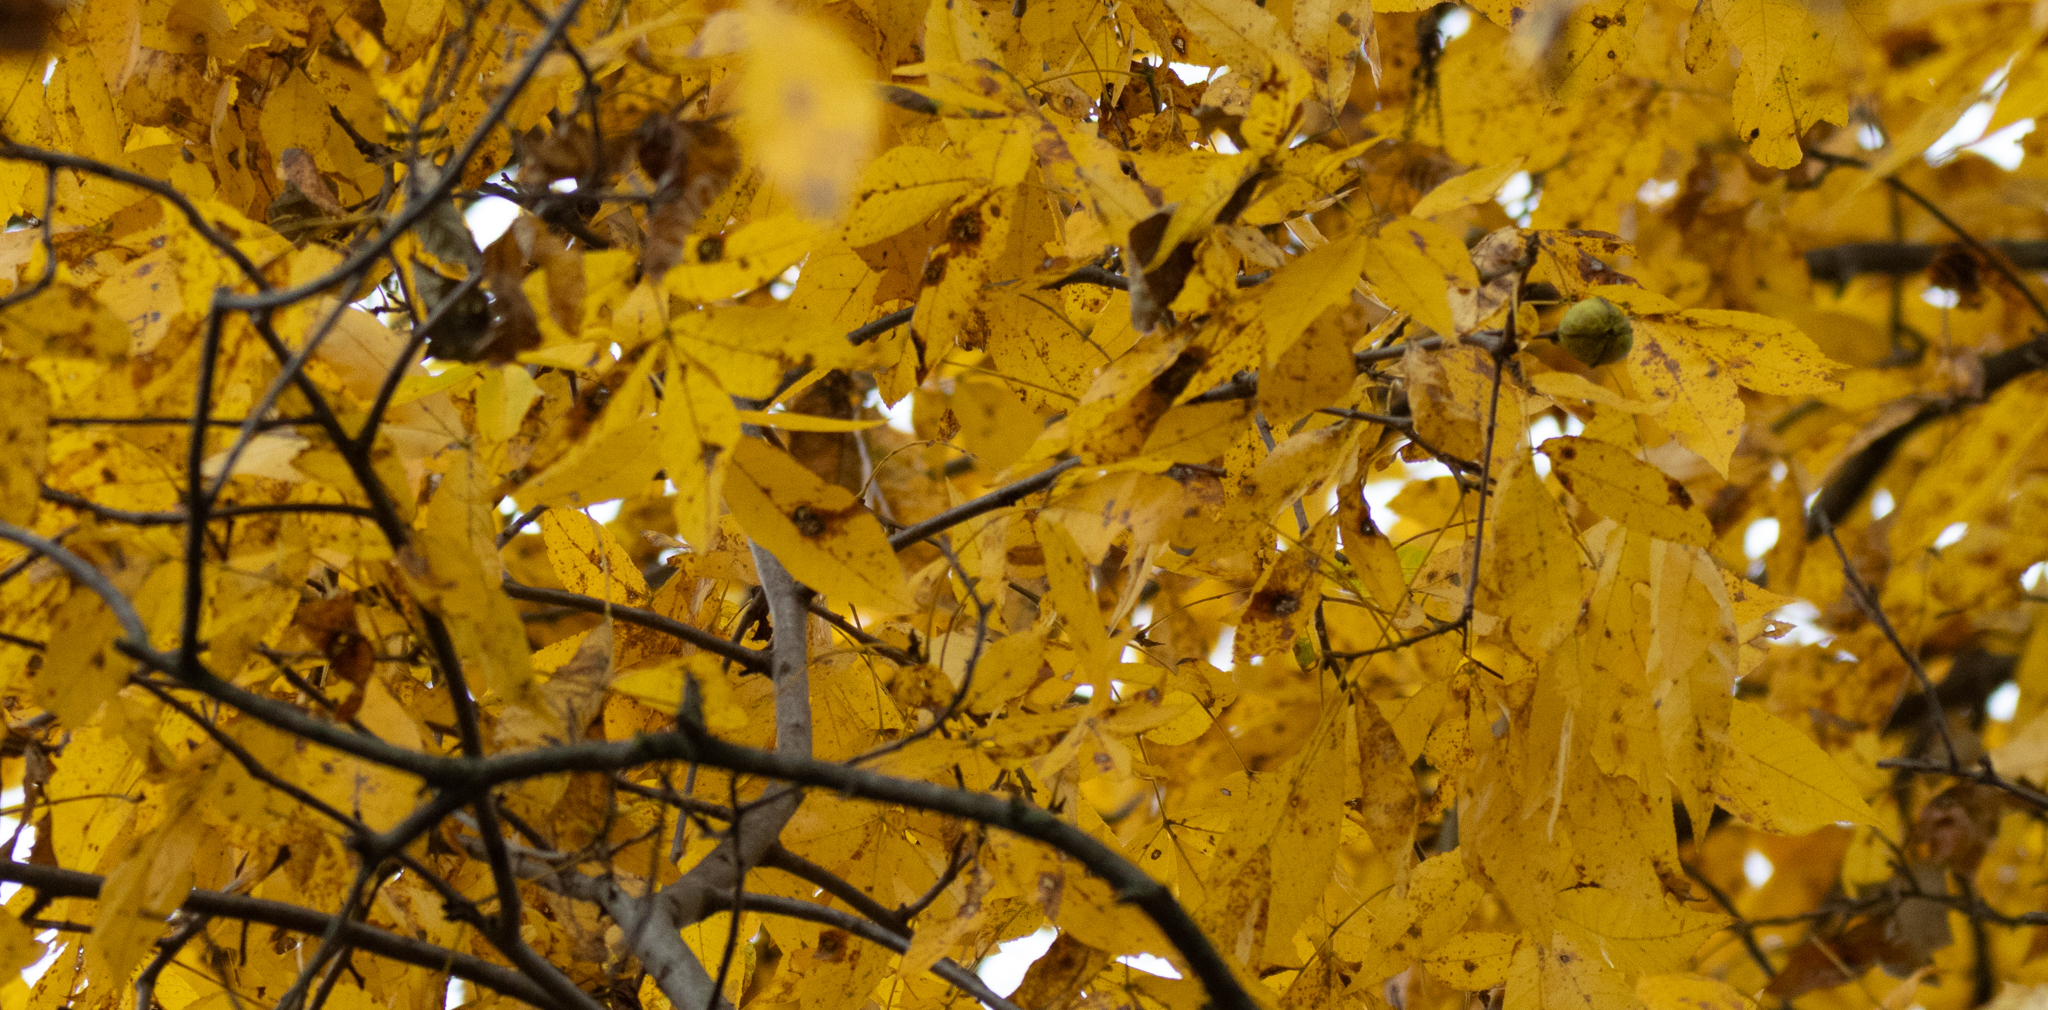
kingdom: Plantae
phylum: Tracheophyta
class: Magnoliopsida
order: Fagales
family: Juglandaceae
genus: Carya
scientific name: Carya cordiformis
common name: Bitternut hickory
